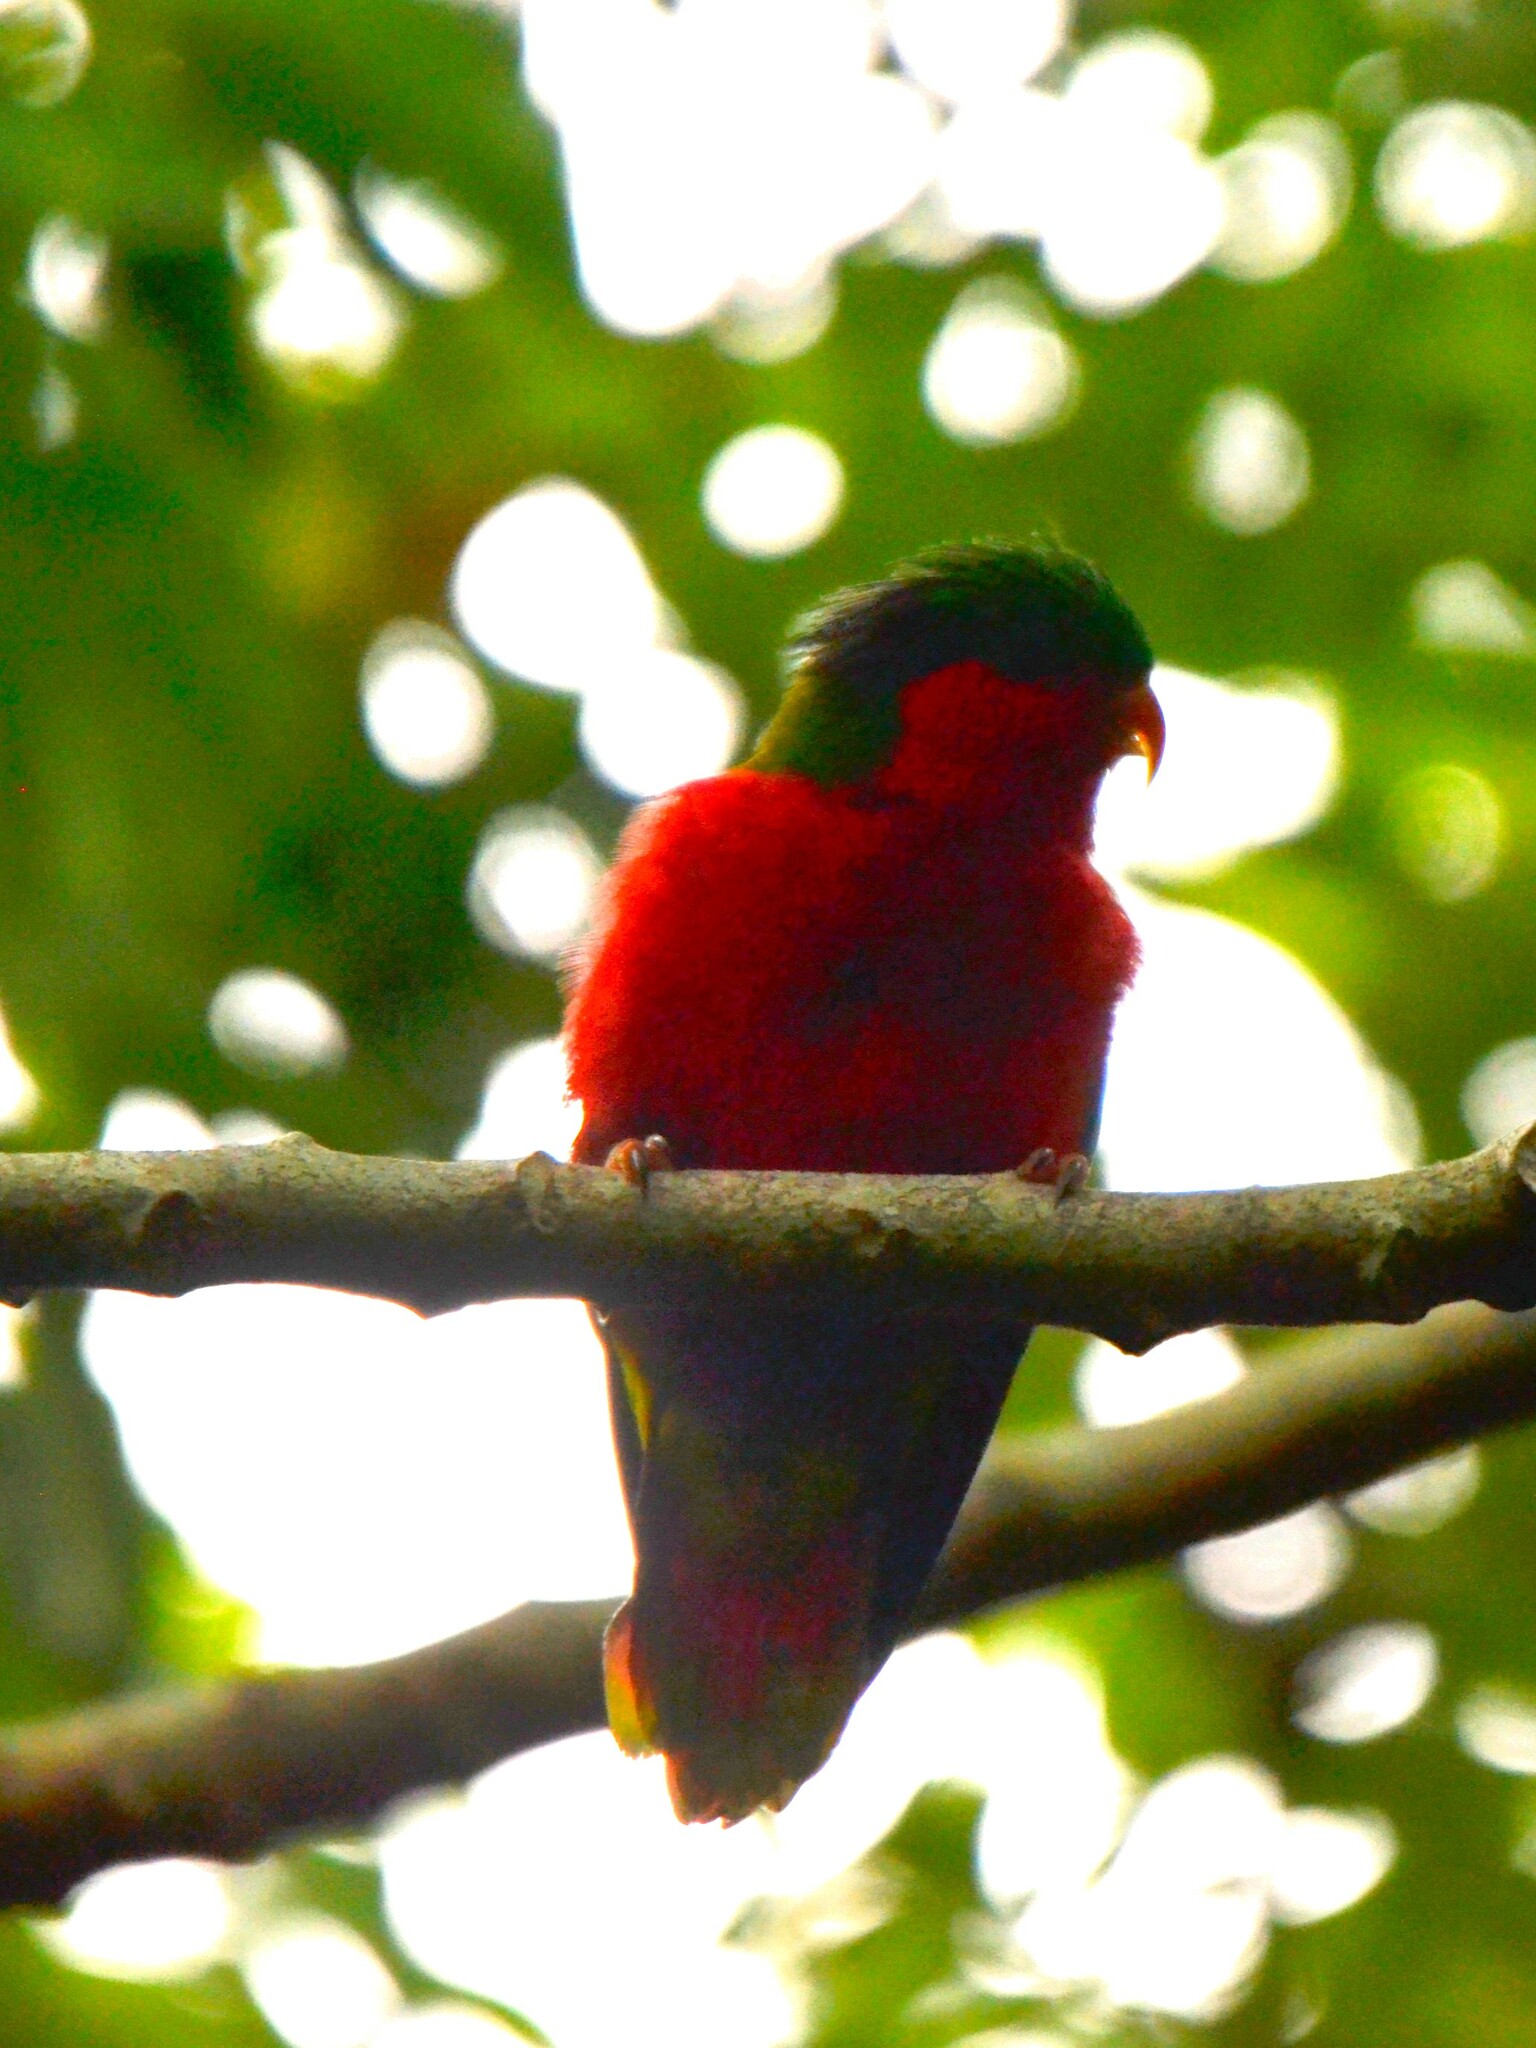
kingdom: Animalia
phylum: Chordata
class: Aves
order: Psittaciformes
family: Psittacidae
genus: Vini
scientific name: Vini kuhlii
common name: Kuhl's lorikeet
